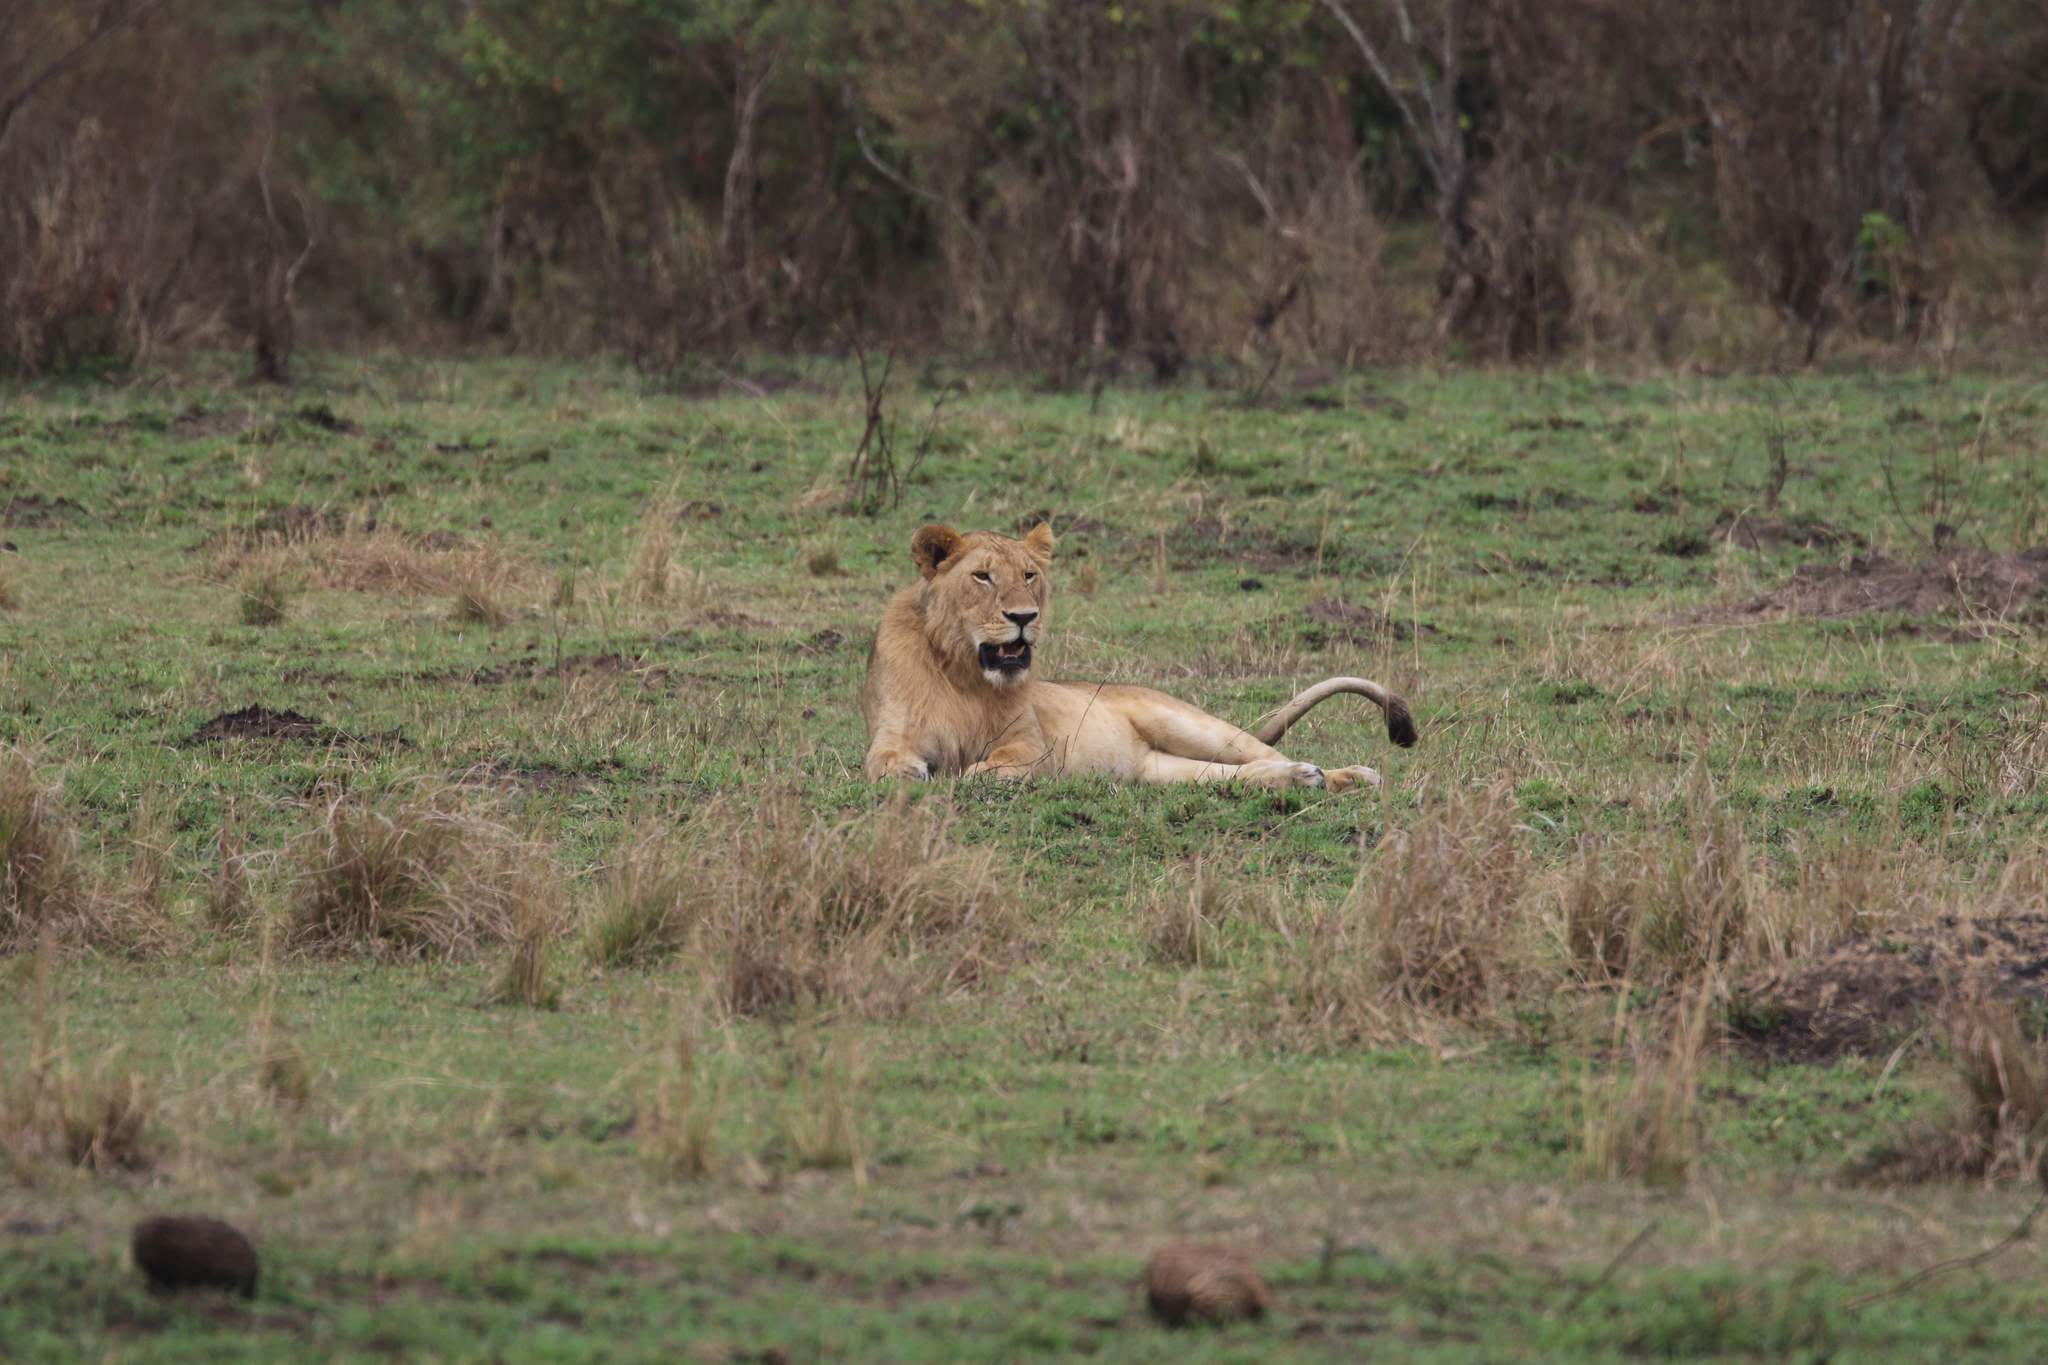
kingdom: Animalia
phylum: Chordata
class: Mammalia
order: Carnivora
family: Felidae
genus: Panthera
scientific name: Panthera leo
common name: Lion
